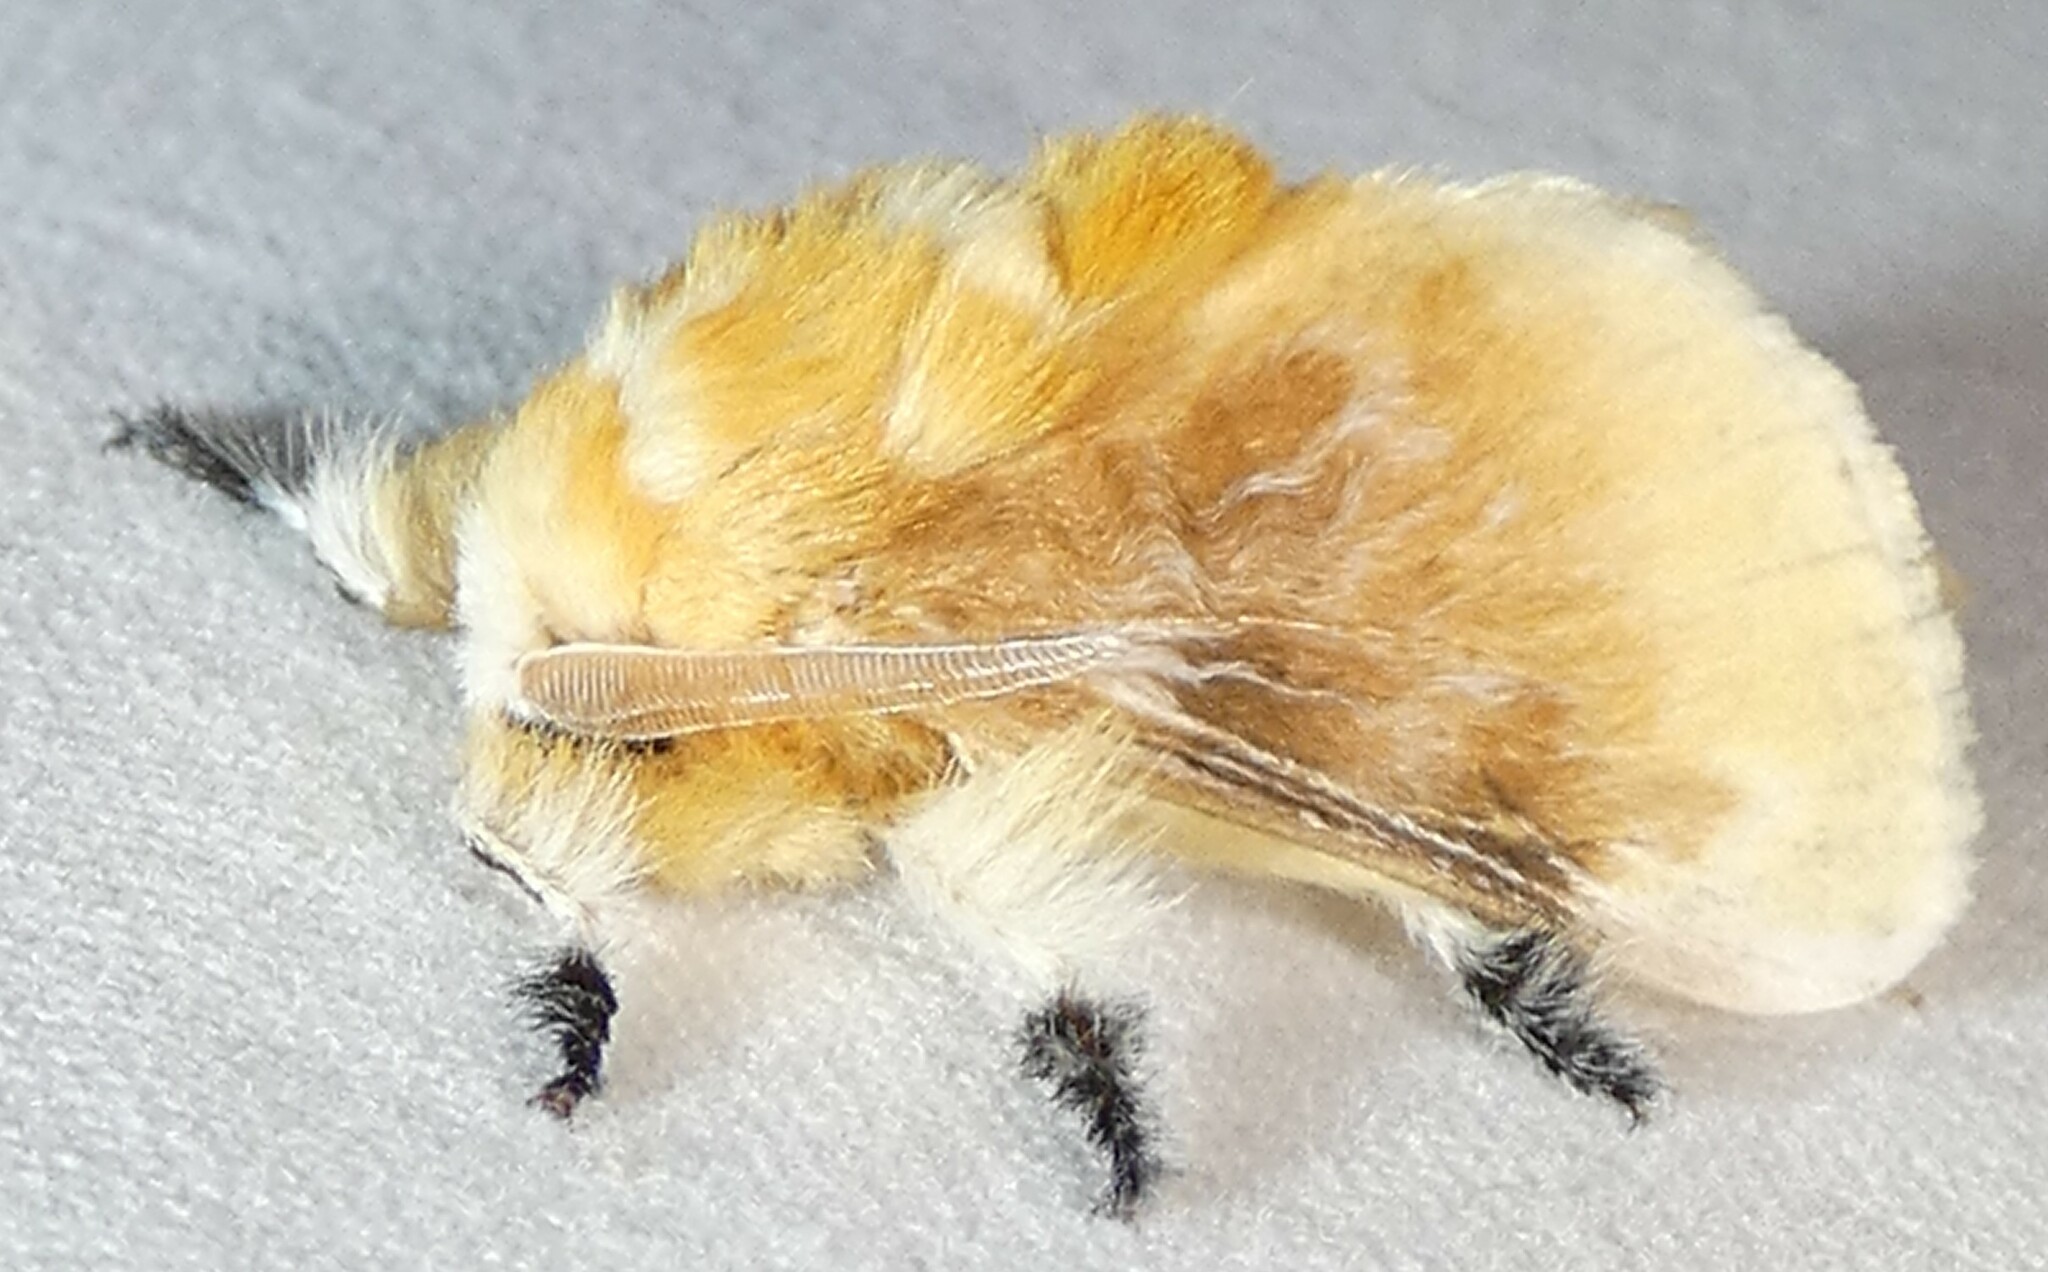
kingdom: Animalia
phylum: Arthropoda
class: Insecta
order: Lepidoptera
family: Megalopygidae
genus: Megalopyge
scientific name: Megalopyge opercularis
